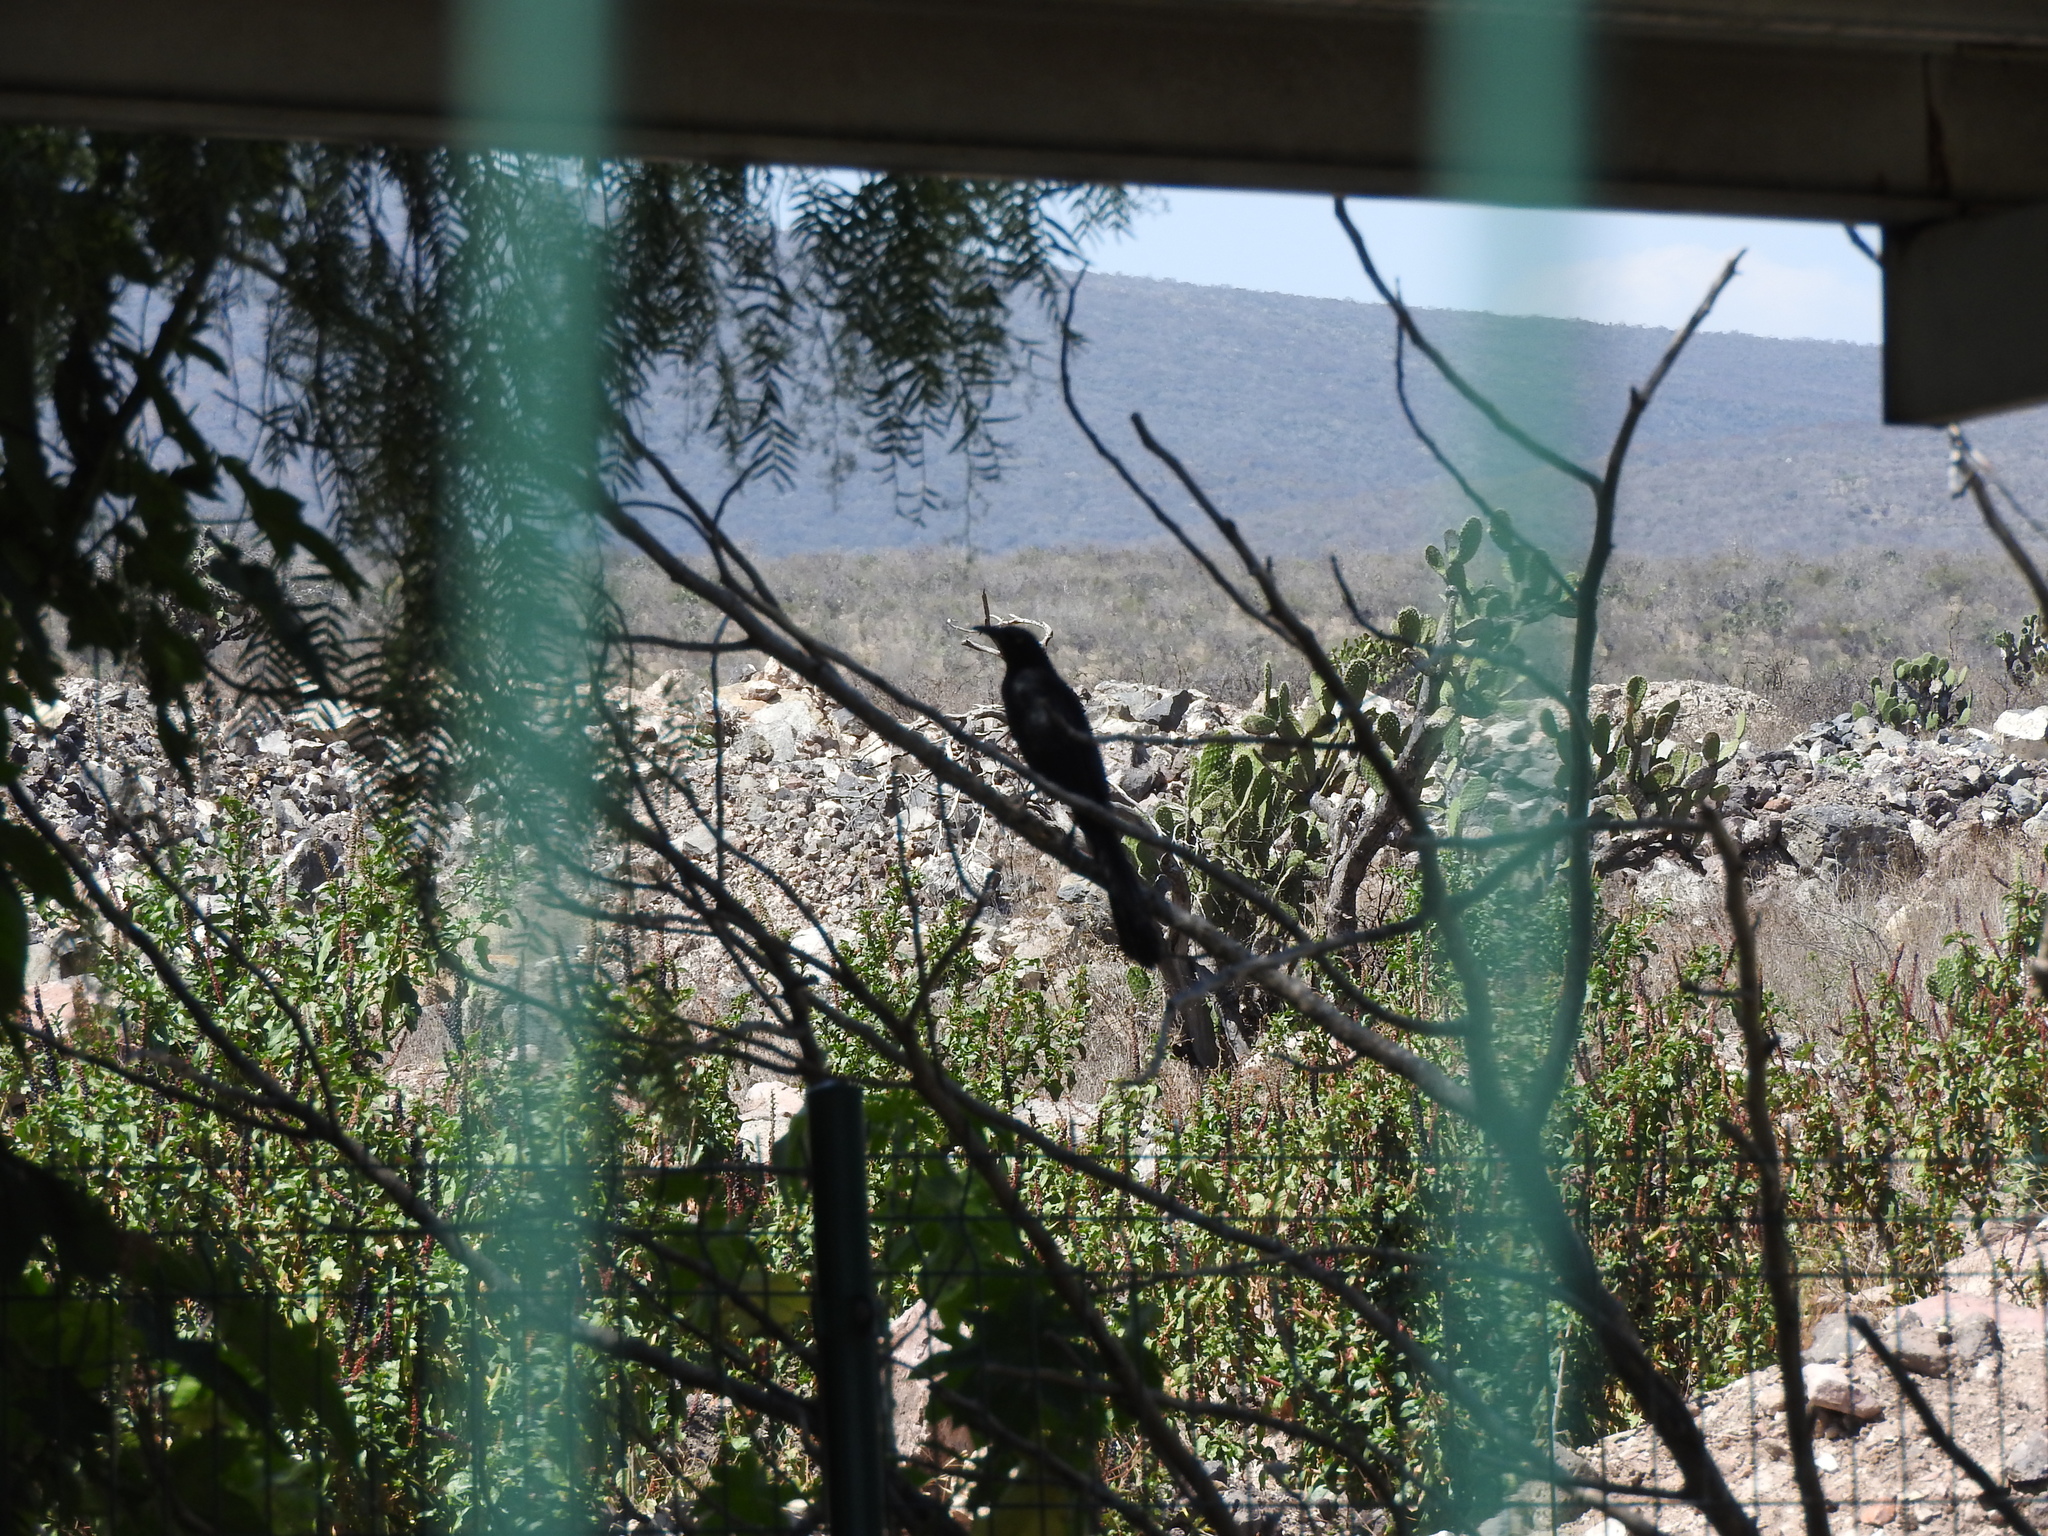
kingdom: Animalia
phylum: Chordata
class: Aves
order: Passeriformes
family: Icteridae
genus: Quiscalus
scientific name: Quiscalus mexicanus
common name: Great-tailed grackle
